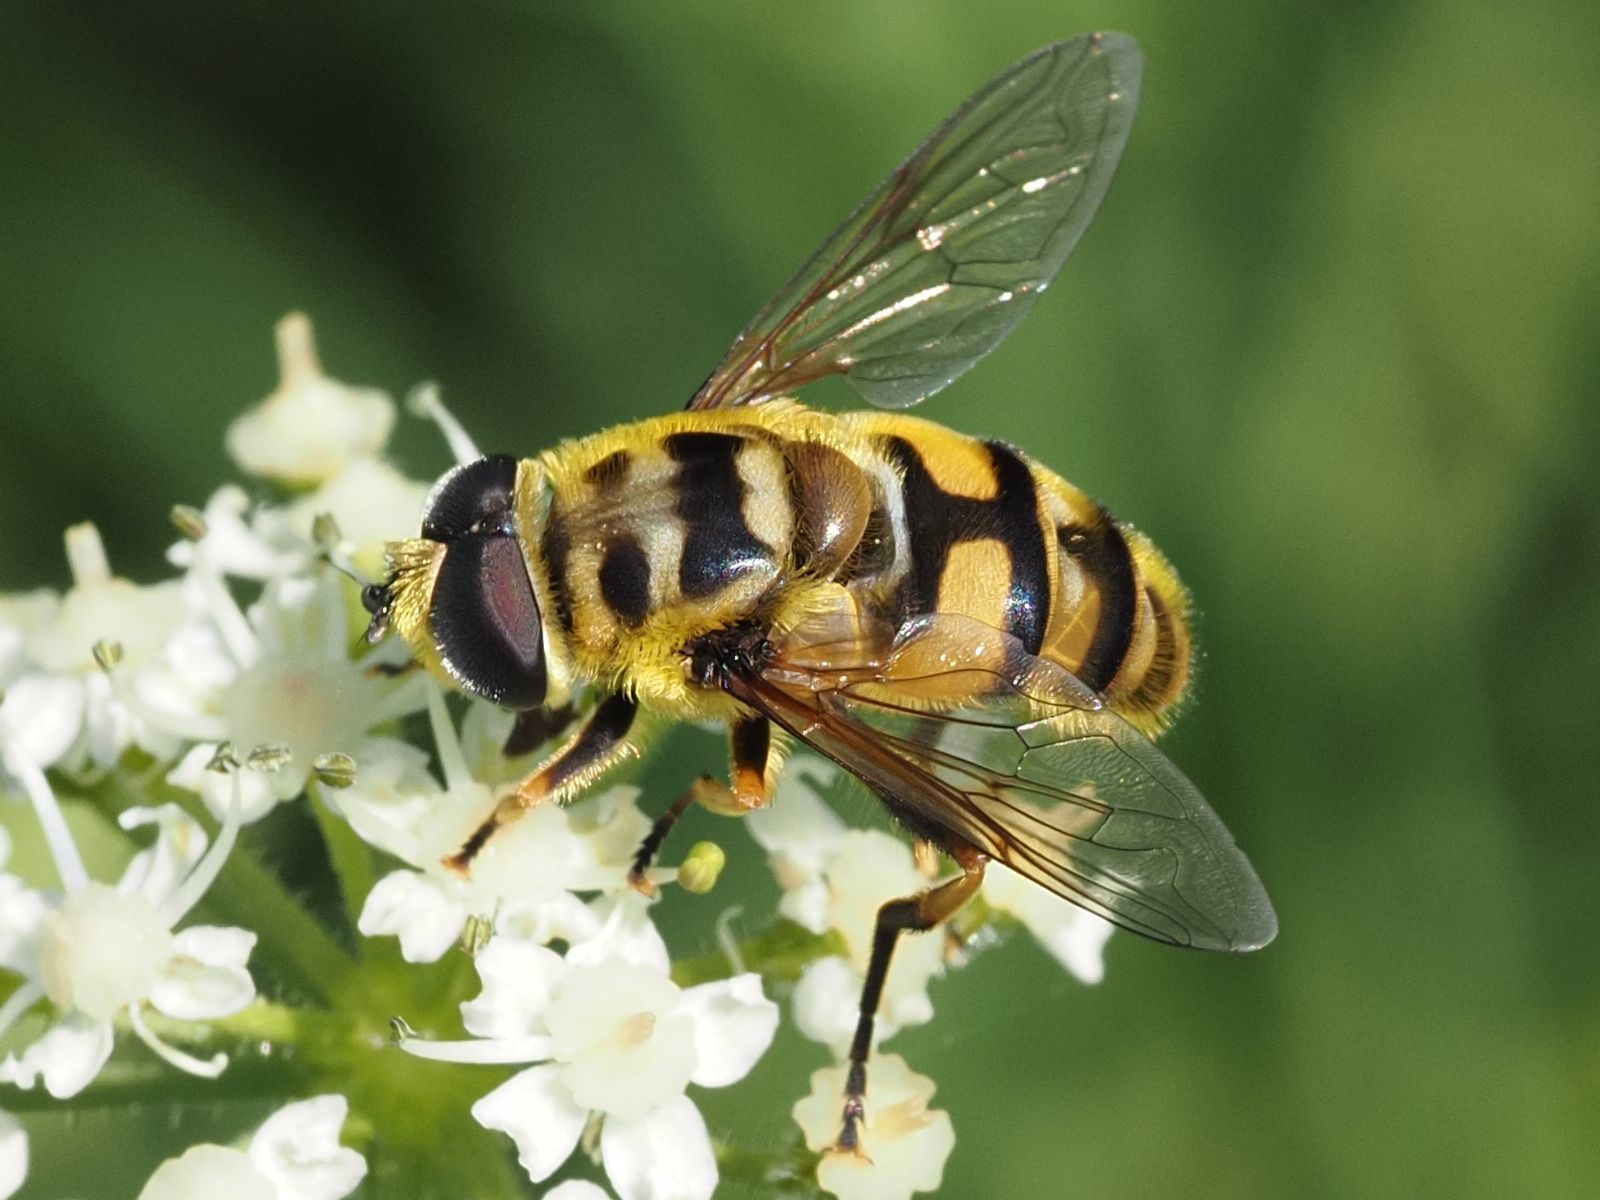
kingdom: Animalia
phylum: Arthropoda
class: Insecta
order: Diptera
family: Syrphidae
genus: Myathropa
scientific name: Myathropa florea
